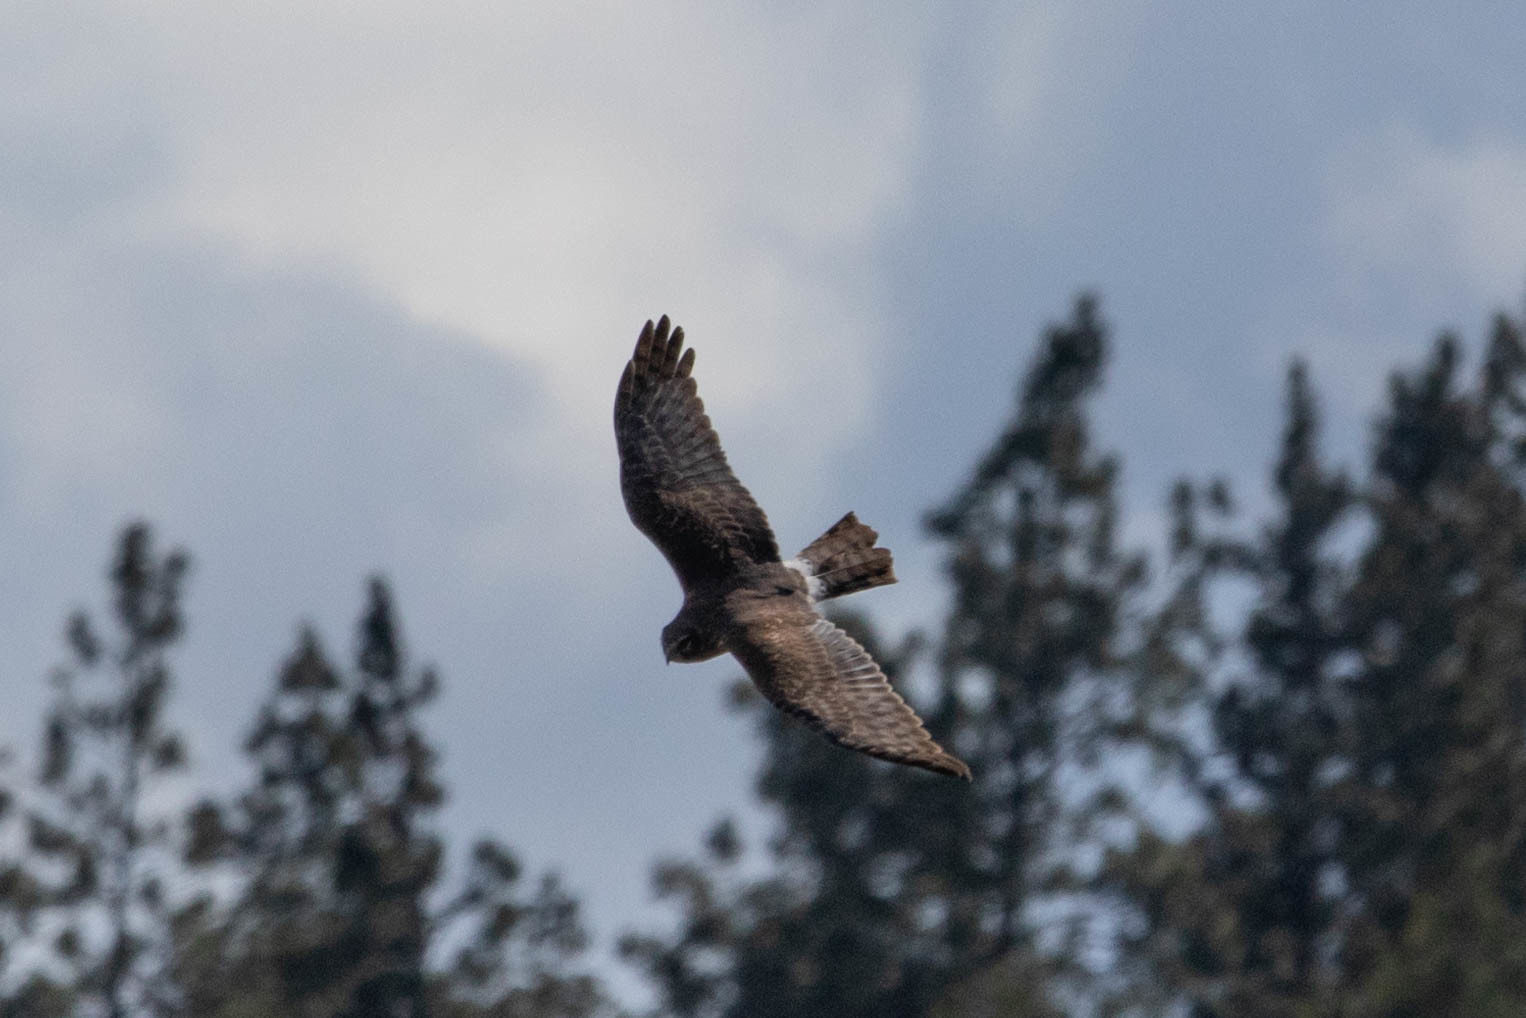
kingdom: Animalia
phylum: Chordata
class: Aves
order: Accipitriformes
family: Accipitridae
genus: Circus
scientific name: Circus cyaneus
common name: Hen harrier
